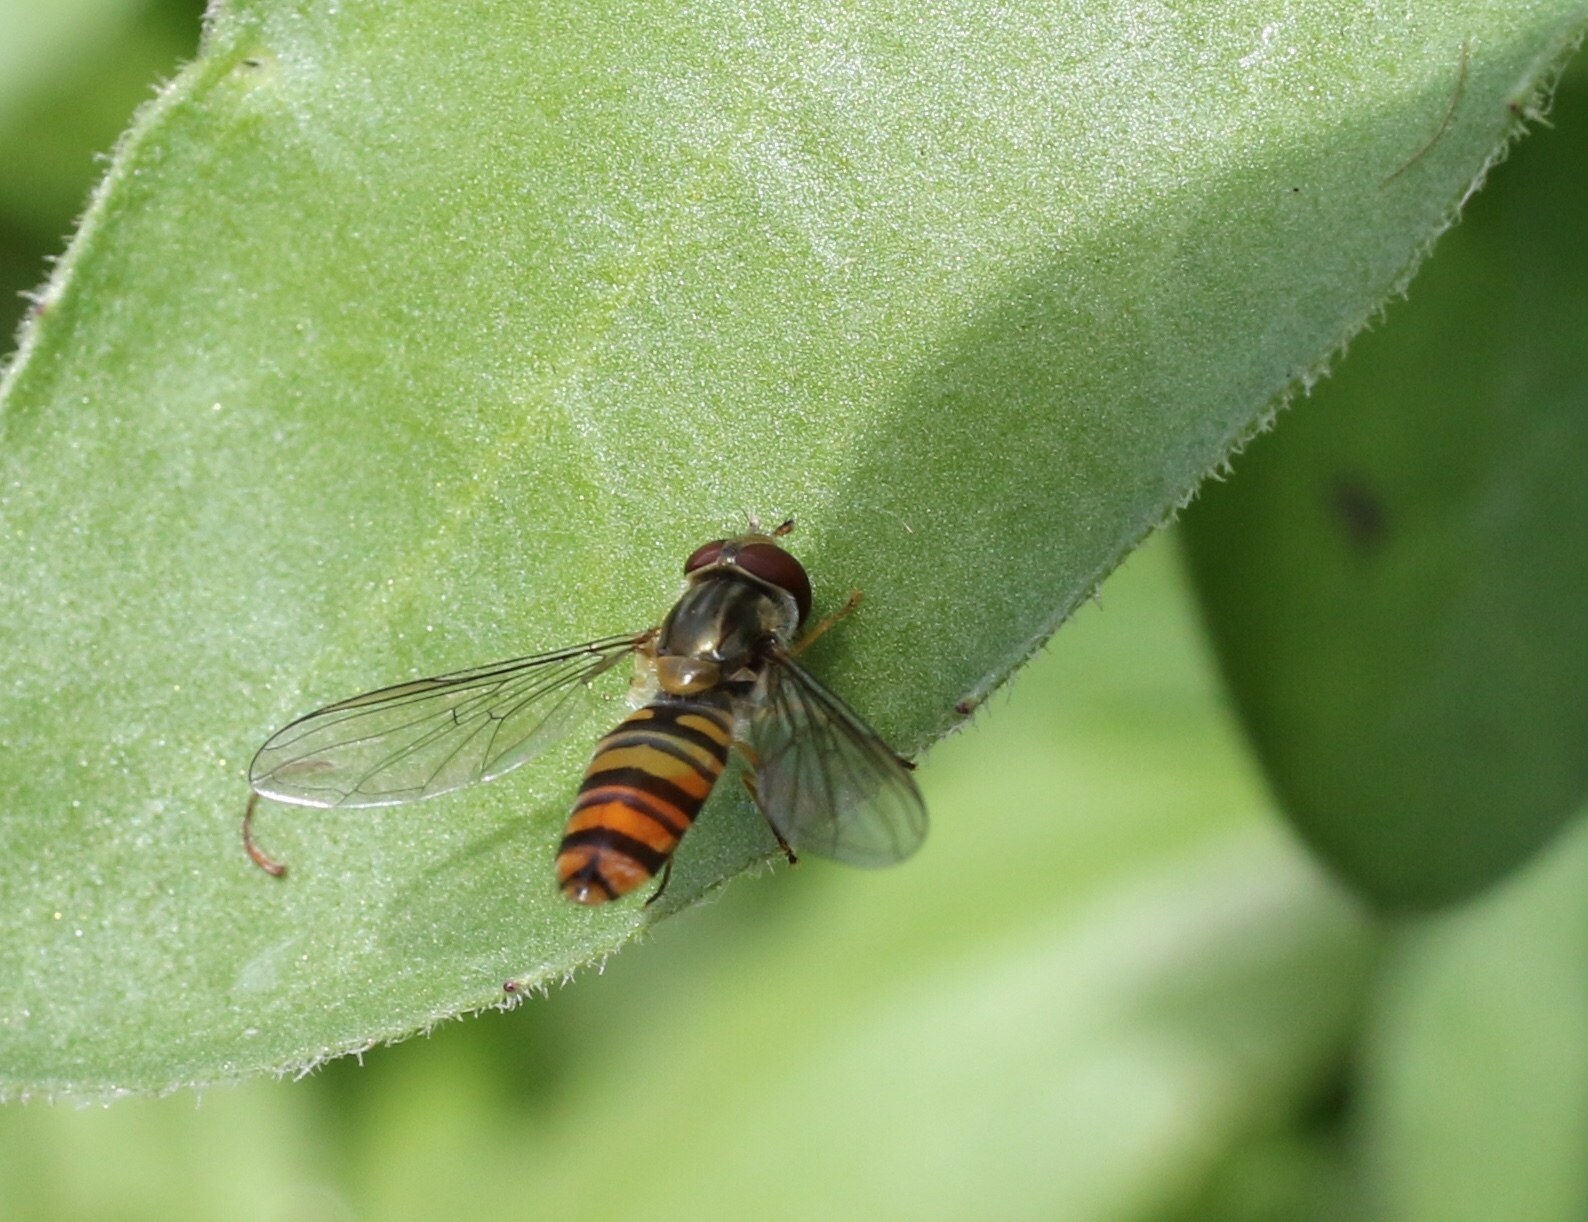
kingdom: Animalia
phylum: Arthropoda
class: Insecta
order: Diptera
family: Syrphidae
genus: Episyrphus
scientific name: Episyrphus balteatus
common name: Marmalade hoverfly
